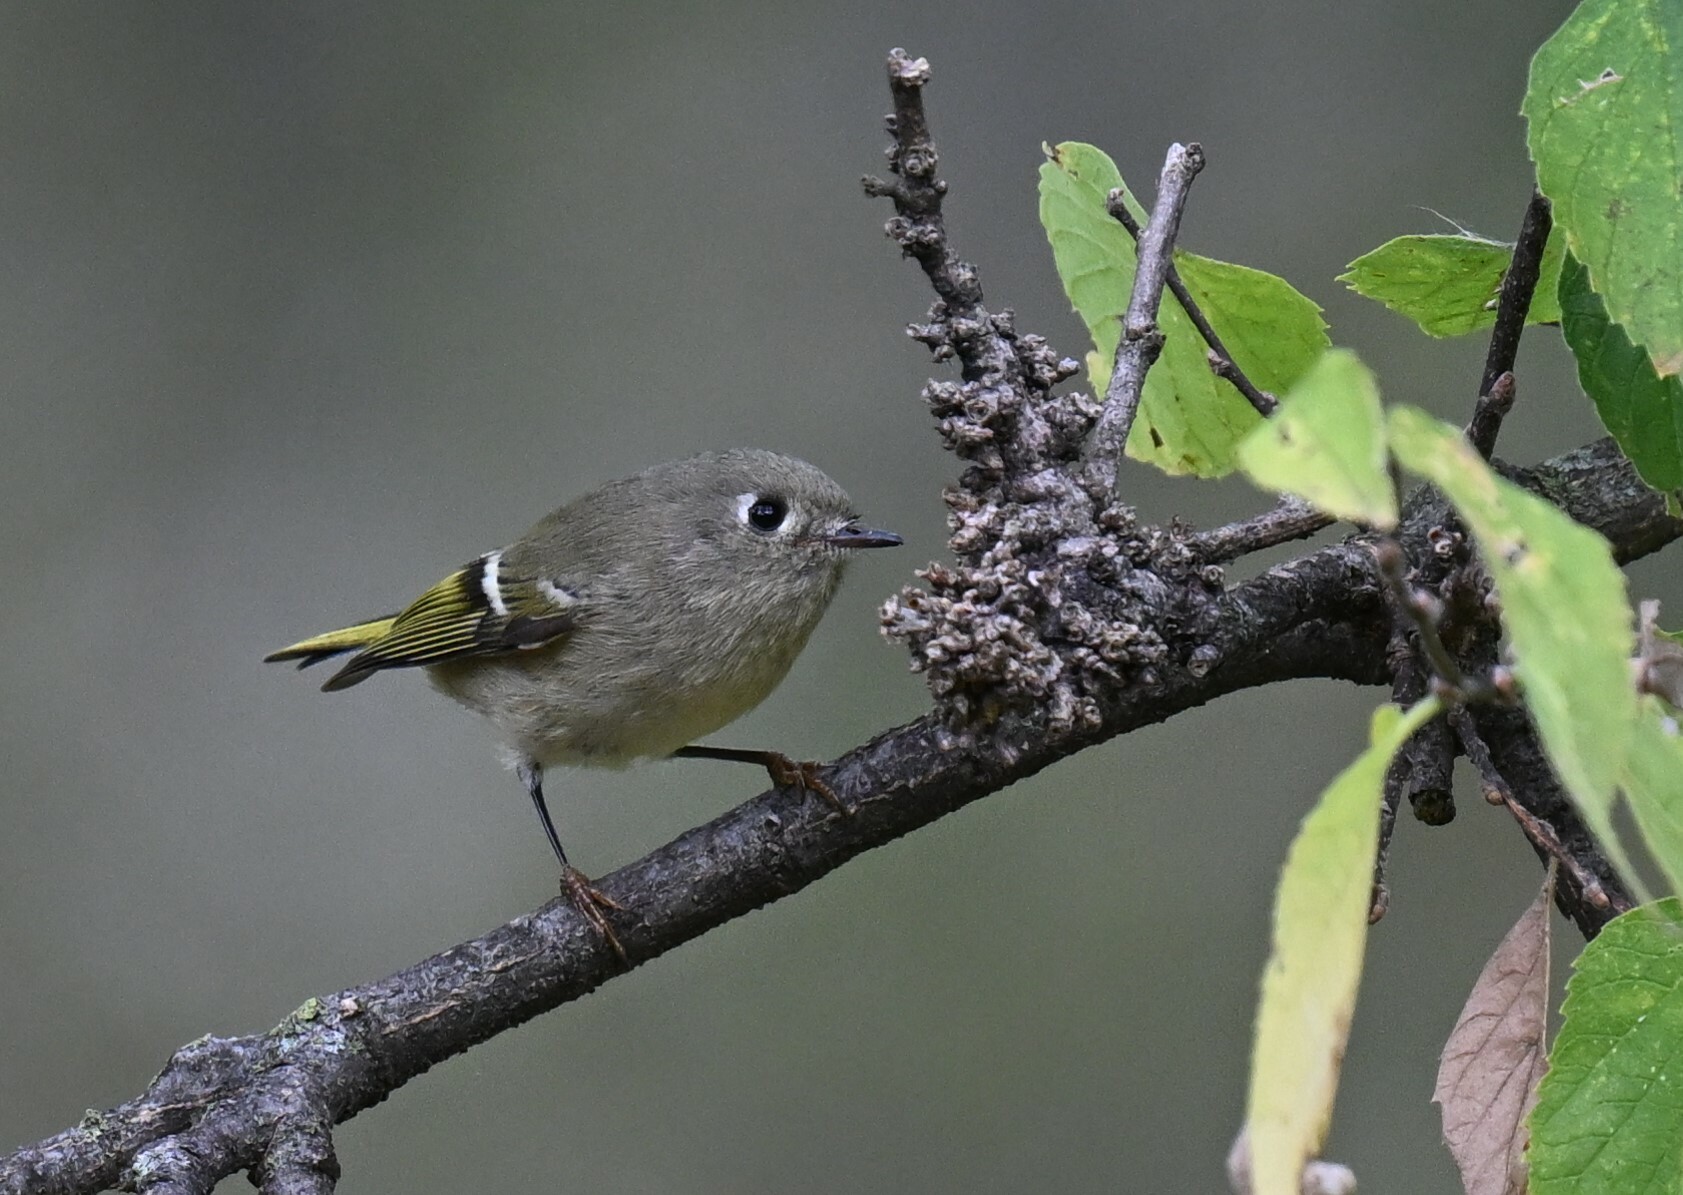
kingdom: Animalia
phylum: Chordata
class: Aves
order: Passeriformes
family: Regulidae
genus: Regulus
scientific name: Regulus calendula
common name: Ruby-crowned kinglet
